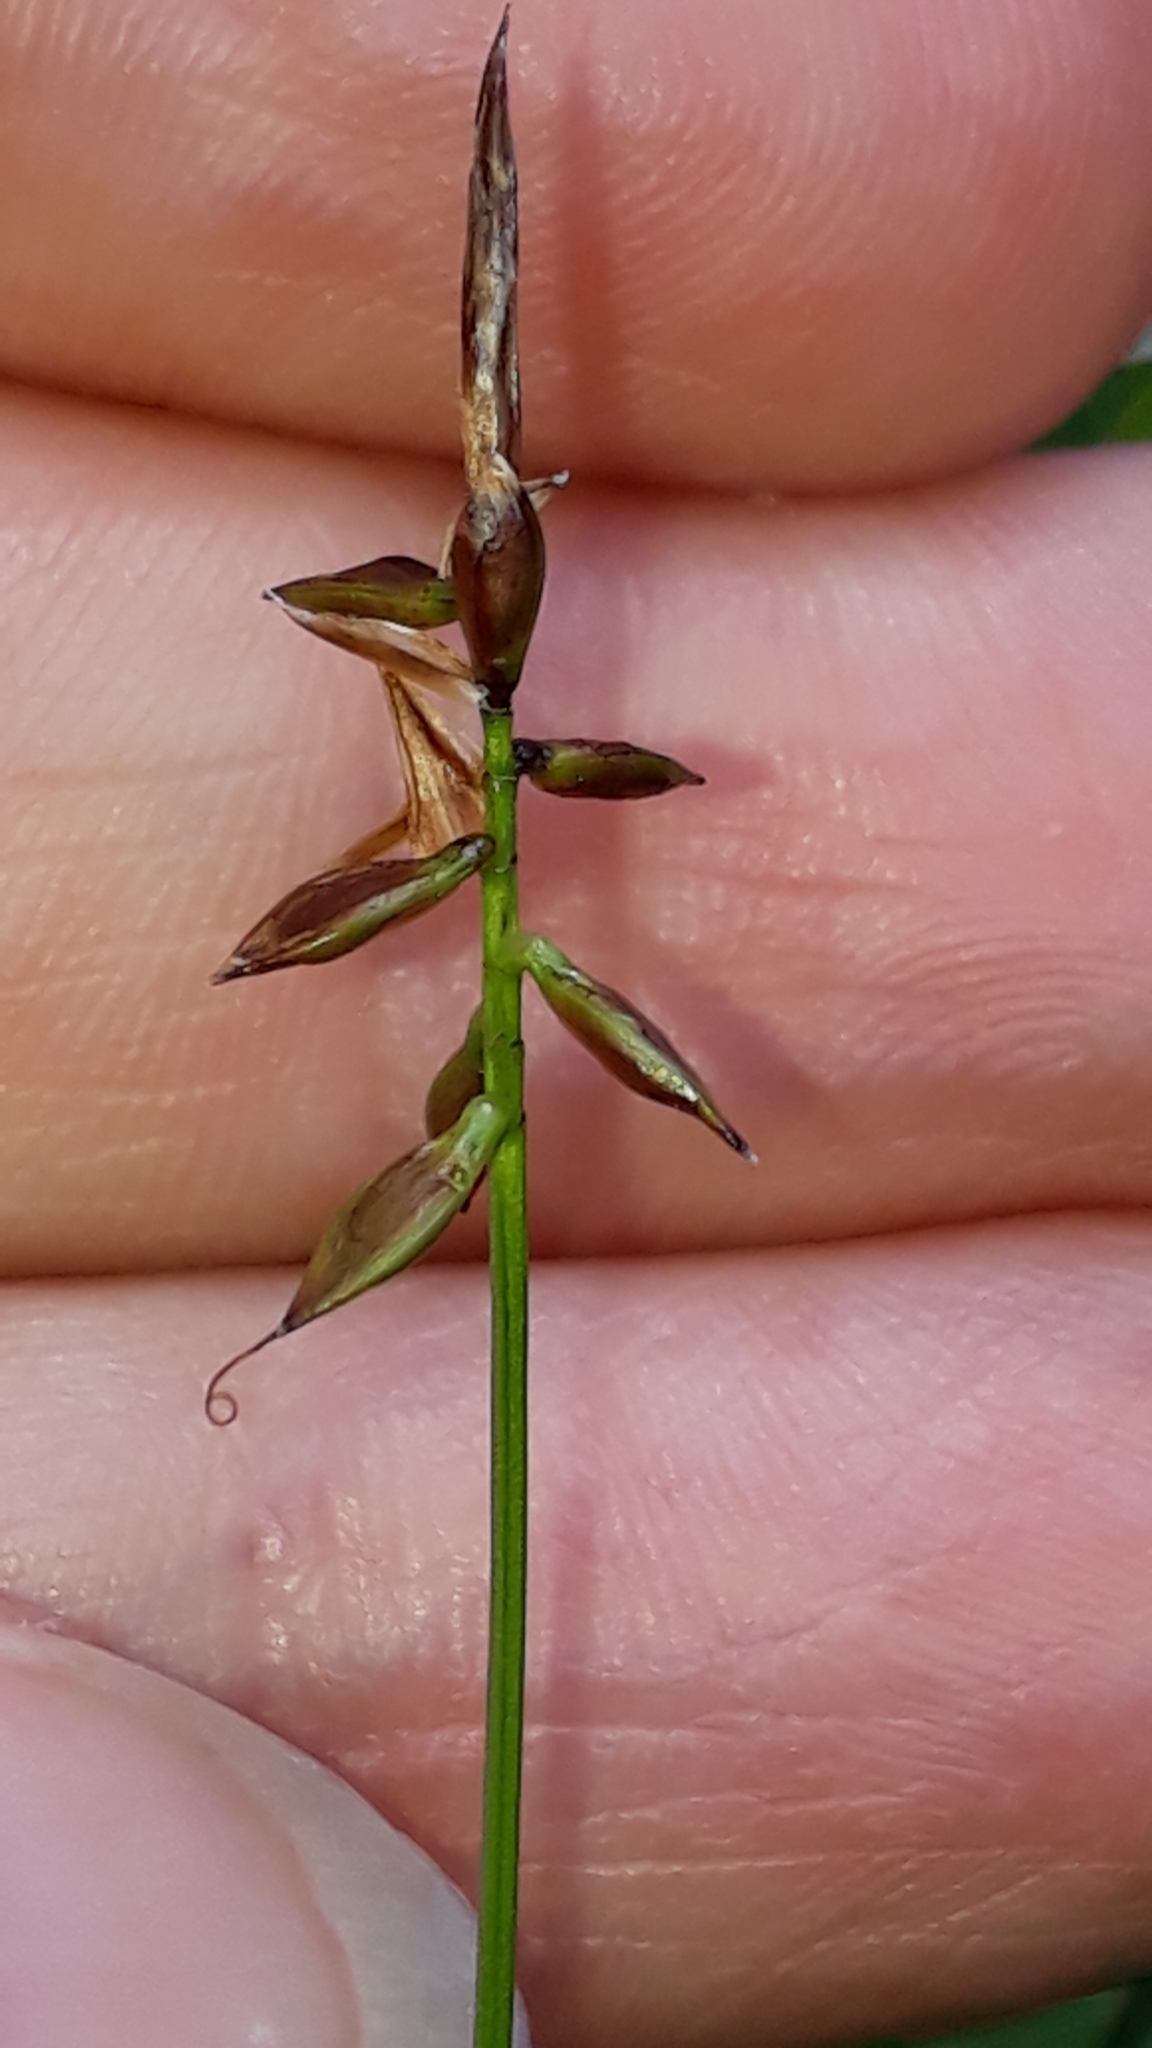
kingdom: Plantae
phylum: Tracheophyta
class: Liliopsida
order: Poales
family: Cyperaceae
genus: Carex
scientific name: Carex pulicaris
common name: Flea sedge
